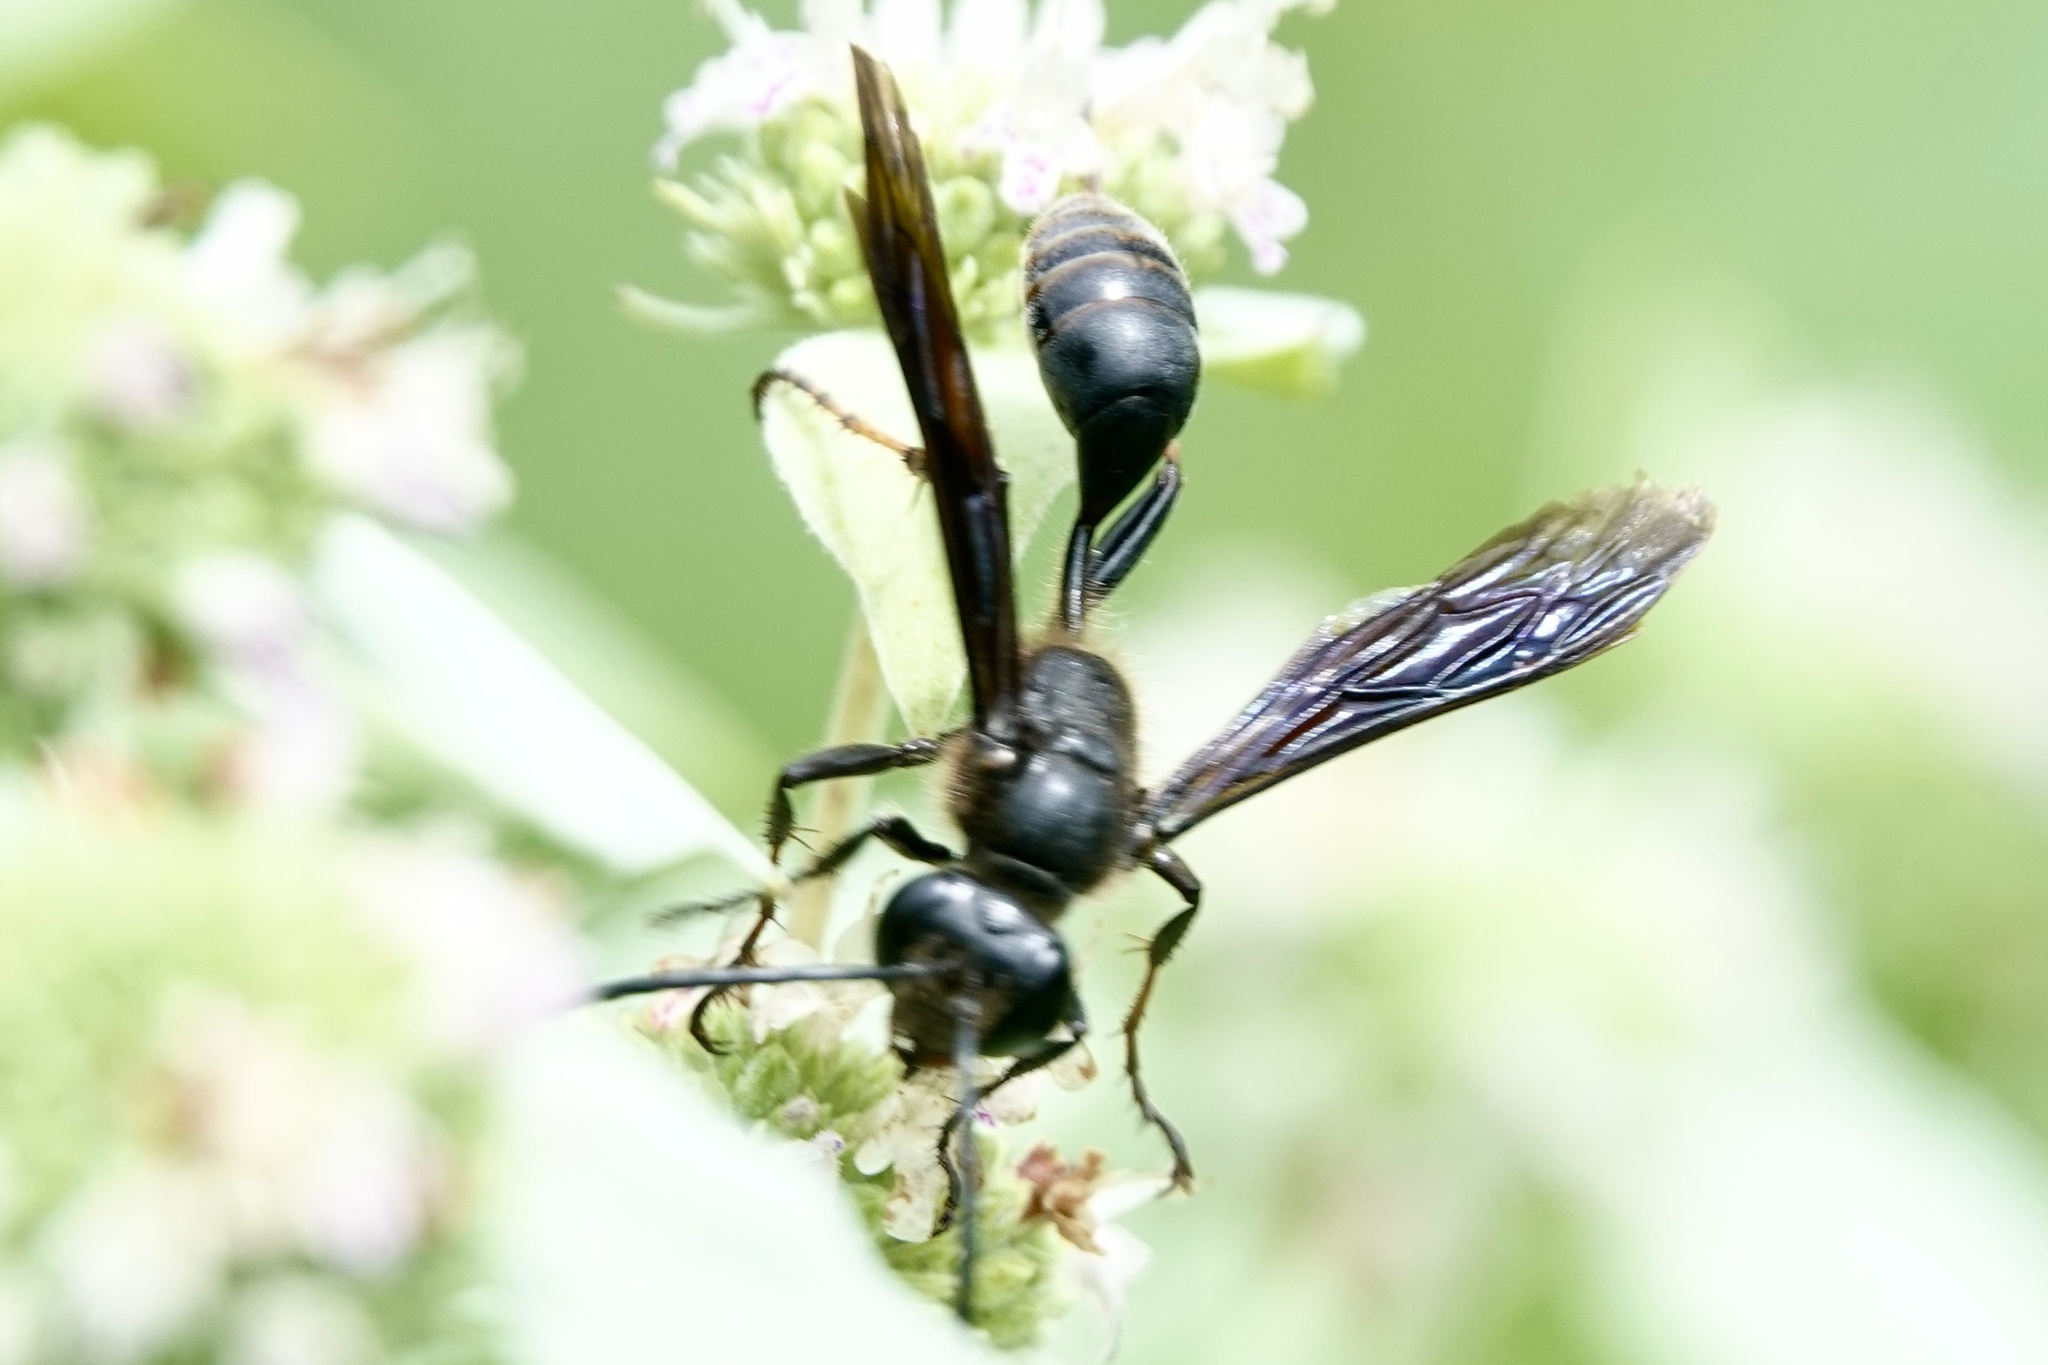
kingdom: Animalia
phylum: Arthropoda
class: Insecta
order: Hymenoptera
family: Sphecidae
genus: Isodontia
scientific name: Isodontia auripes
